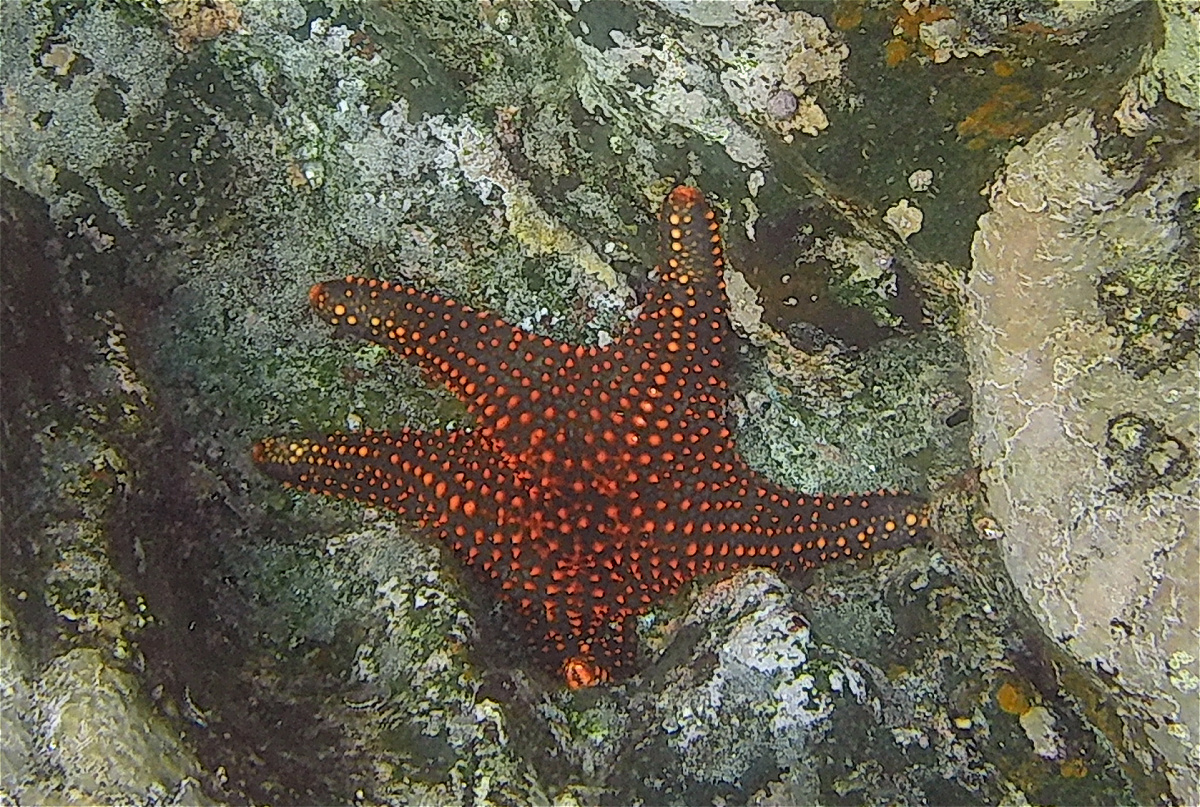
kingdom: Animalia
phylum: Echinodermata
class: Asteroidea
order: Valvatida
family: Oreasteridae
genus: Pentaceraster
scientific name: Pentaceraster cumingi
